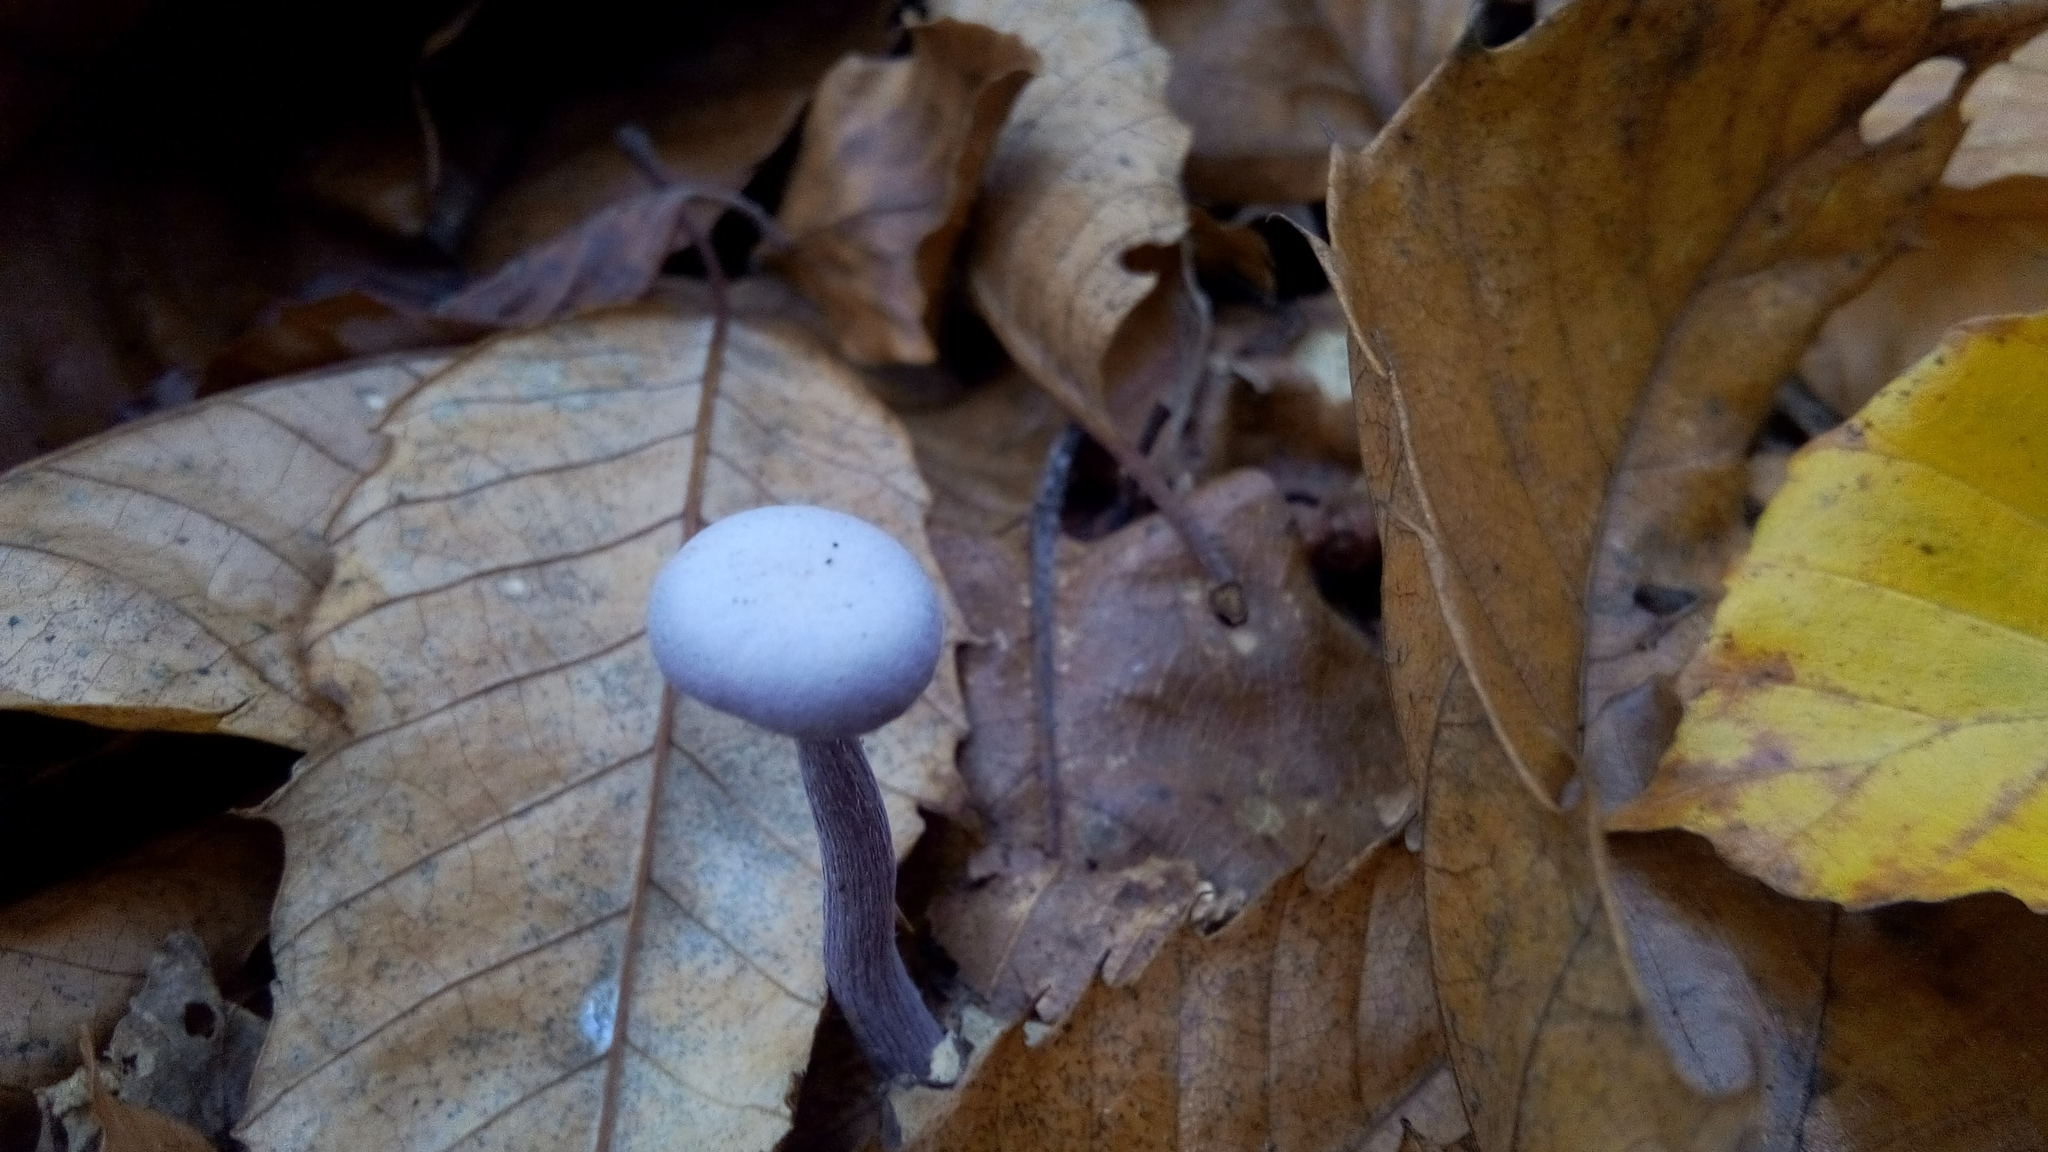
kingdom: Fungi
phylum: Basidiomycota
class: Agaricomycetes
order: Agaricales
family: Hydnangiaceae
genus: Laccaria
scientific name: Laccaria amethystina
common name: Amethyst deceiver
